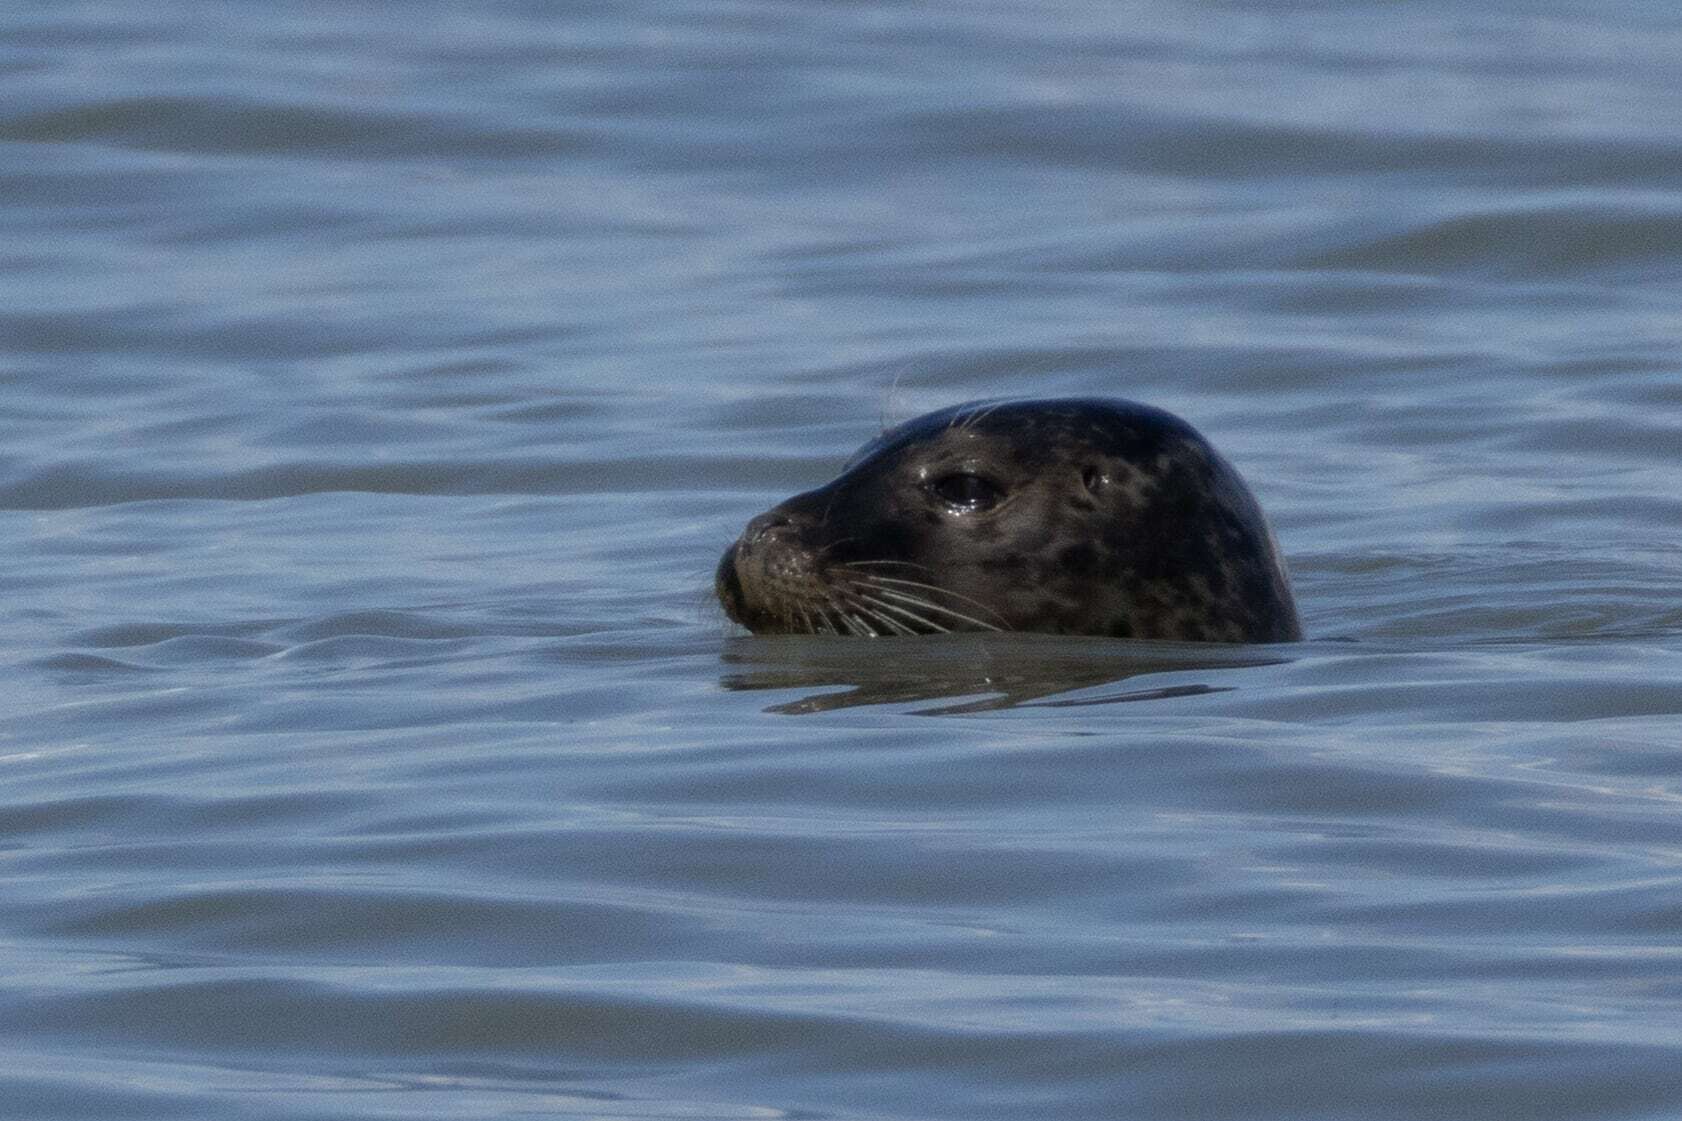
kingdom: Animalia
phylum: Chordata
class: Mammalia
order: Carnivora
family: Phocidae
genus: Phoca
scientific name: Phoca vitulina
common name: Harbor seal
